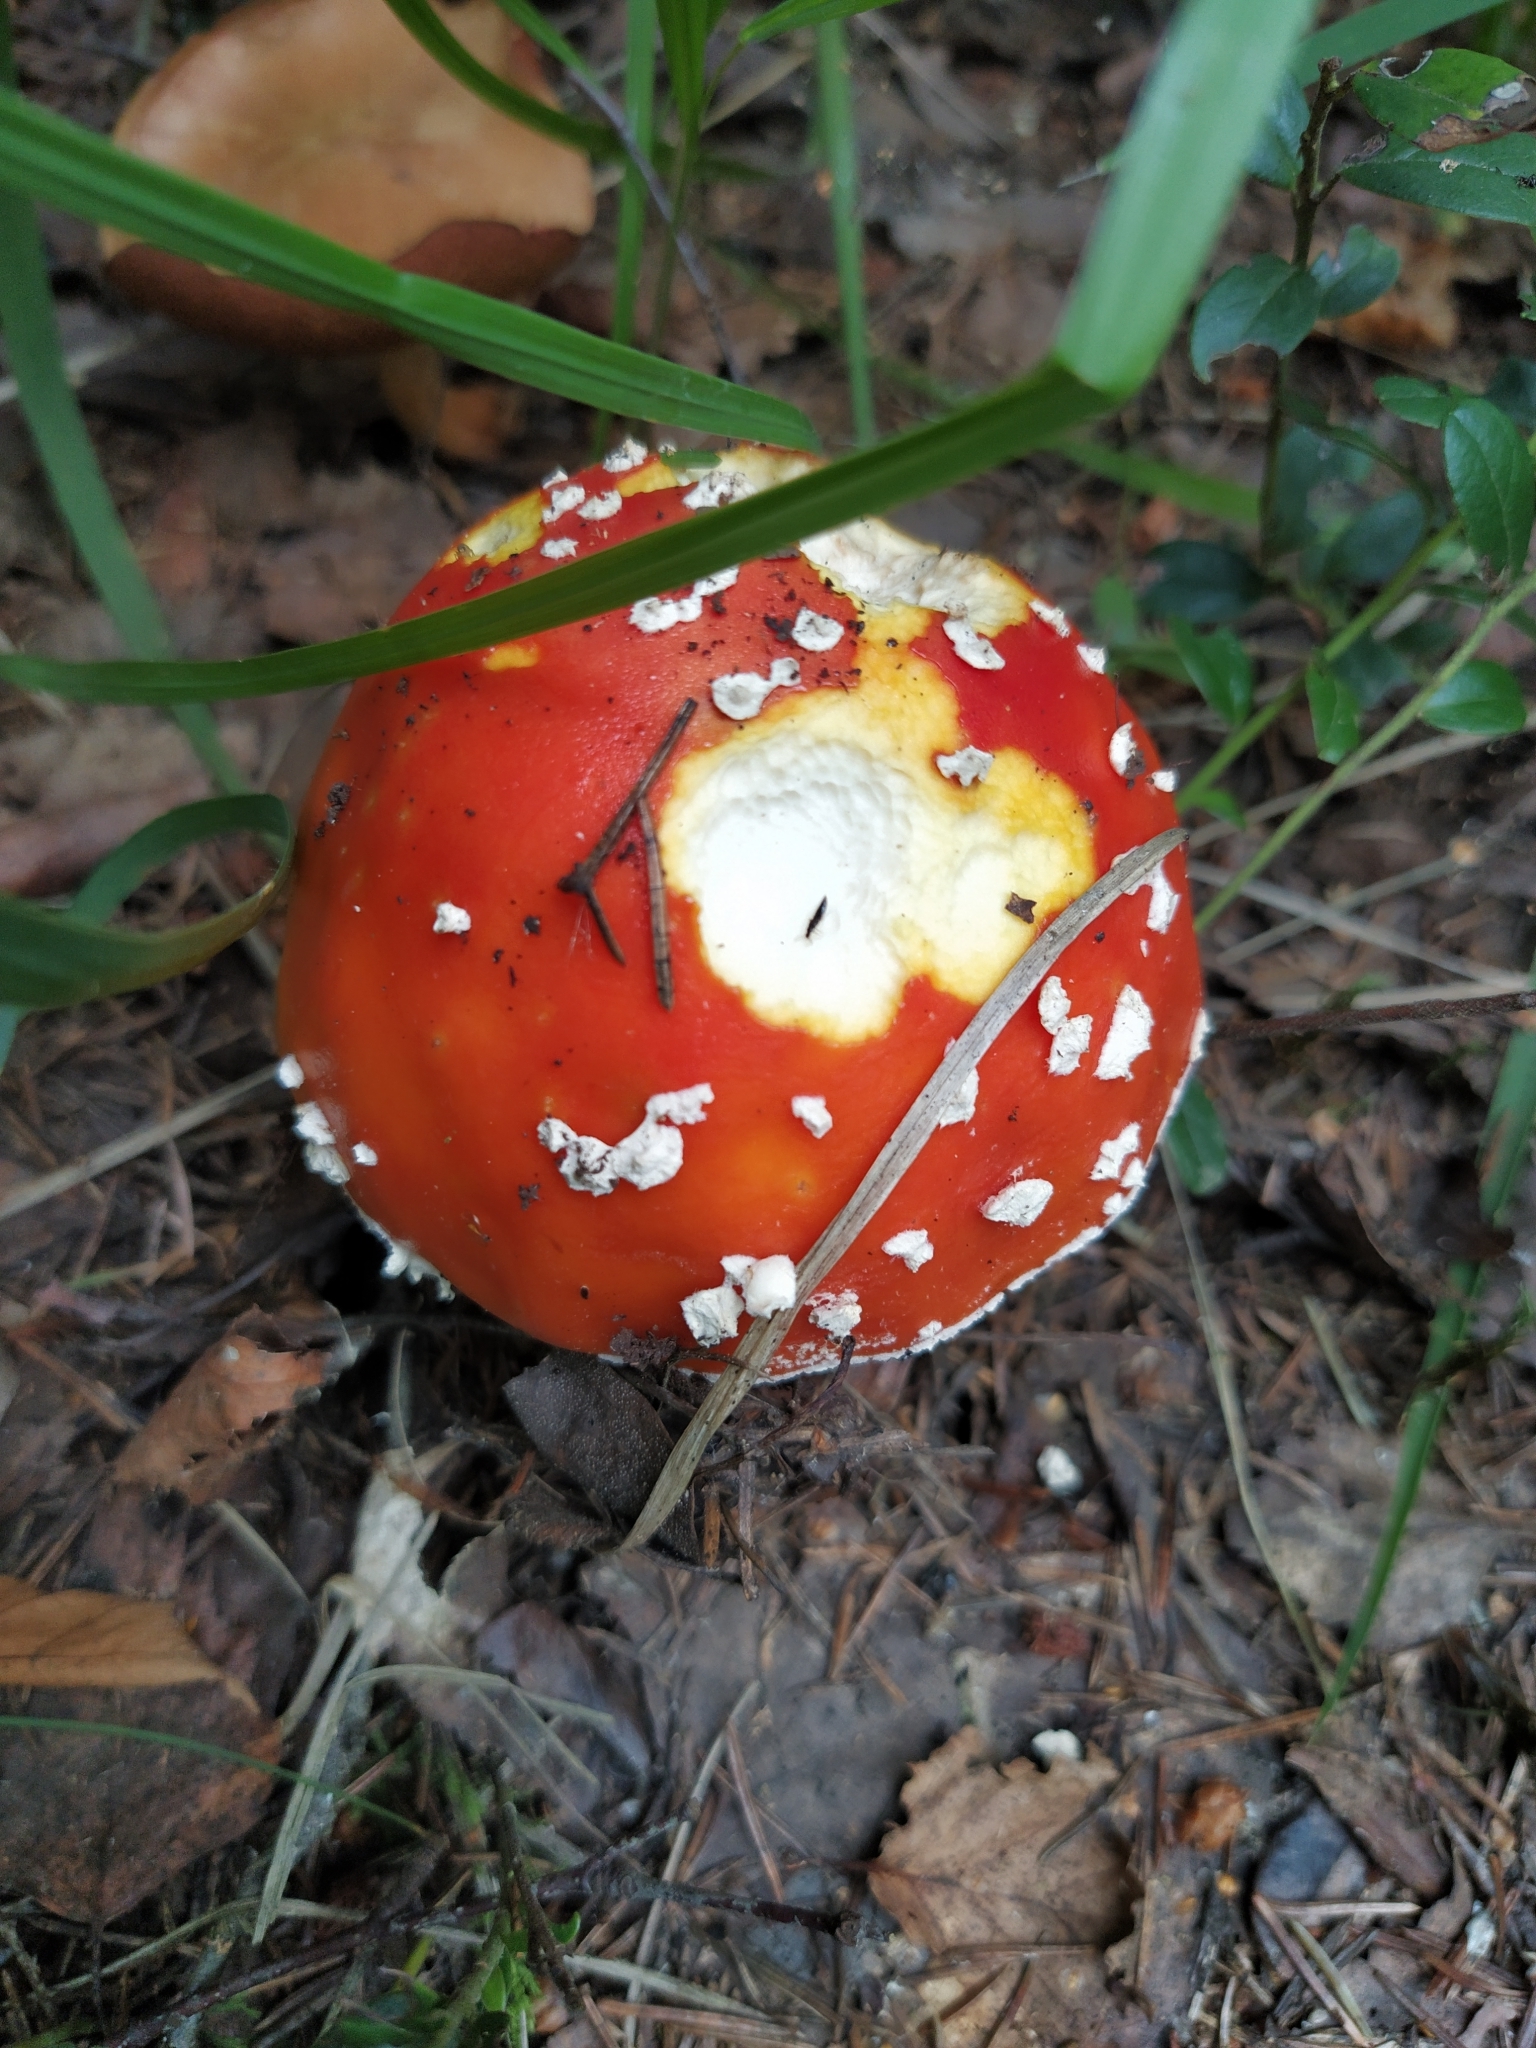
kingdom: Fungi
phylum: Basidiomycota
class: Agaricomycetes
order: Agaricales
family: Amanitaceae
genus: Amanita
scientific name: Amanita muscaria
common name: Fly agaric
